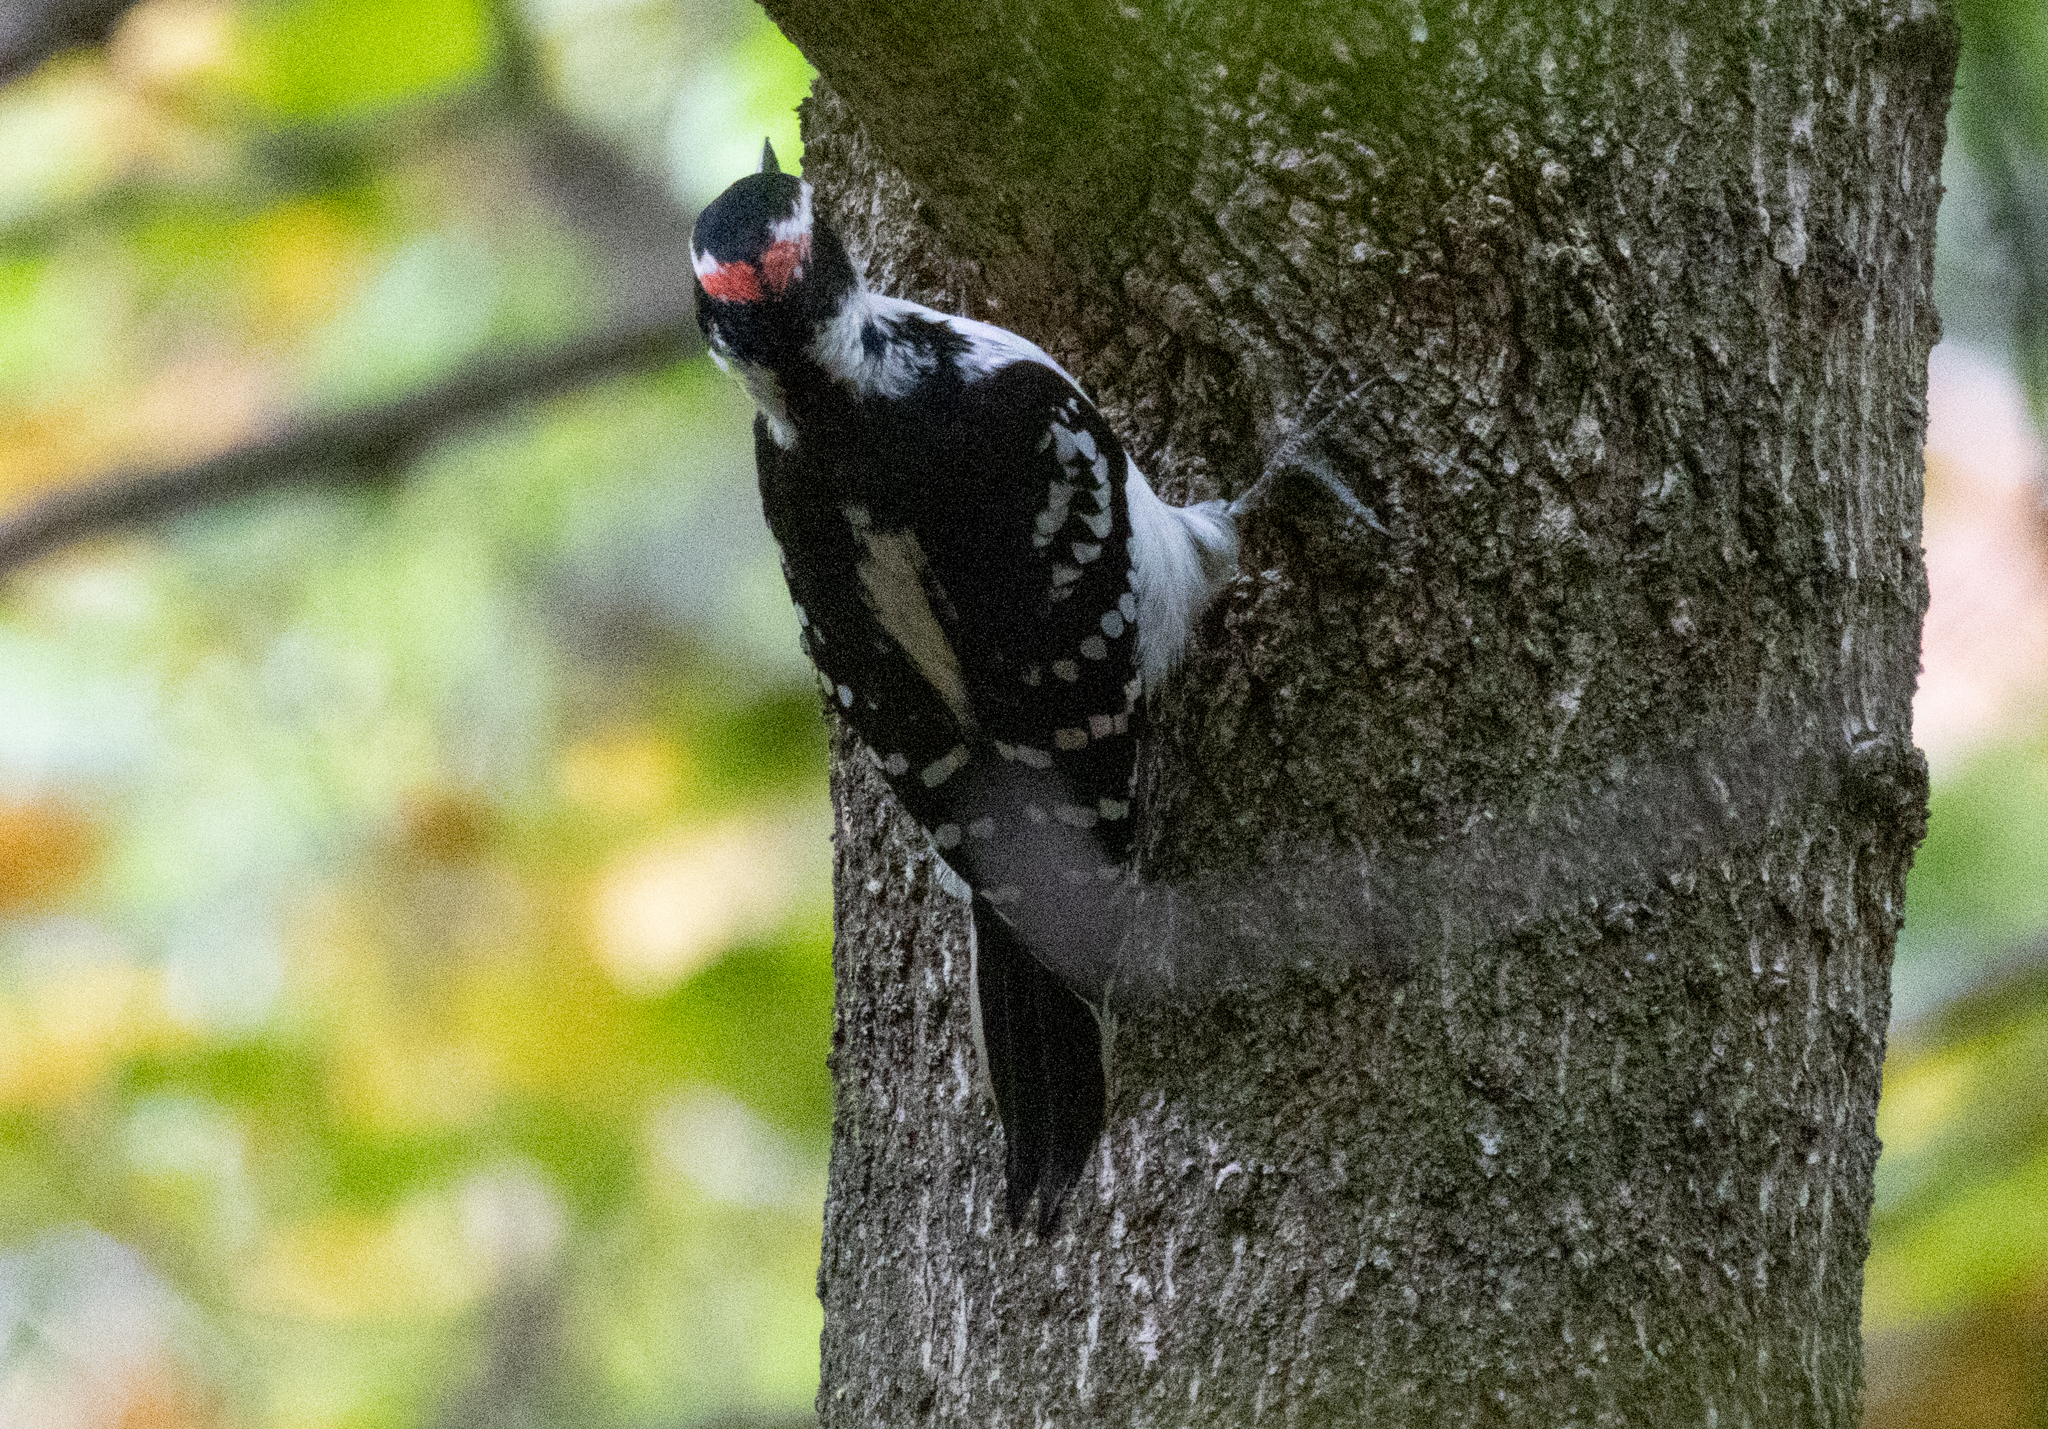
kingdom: Animalia
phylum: Chordata
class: Aves
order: Piciformes
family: Picidae
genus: Leuconotopicus
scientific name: Leuconotopicus villosus
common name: Hairy woodpecker
